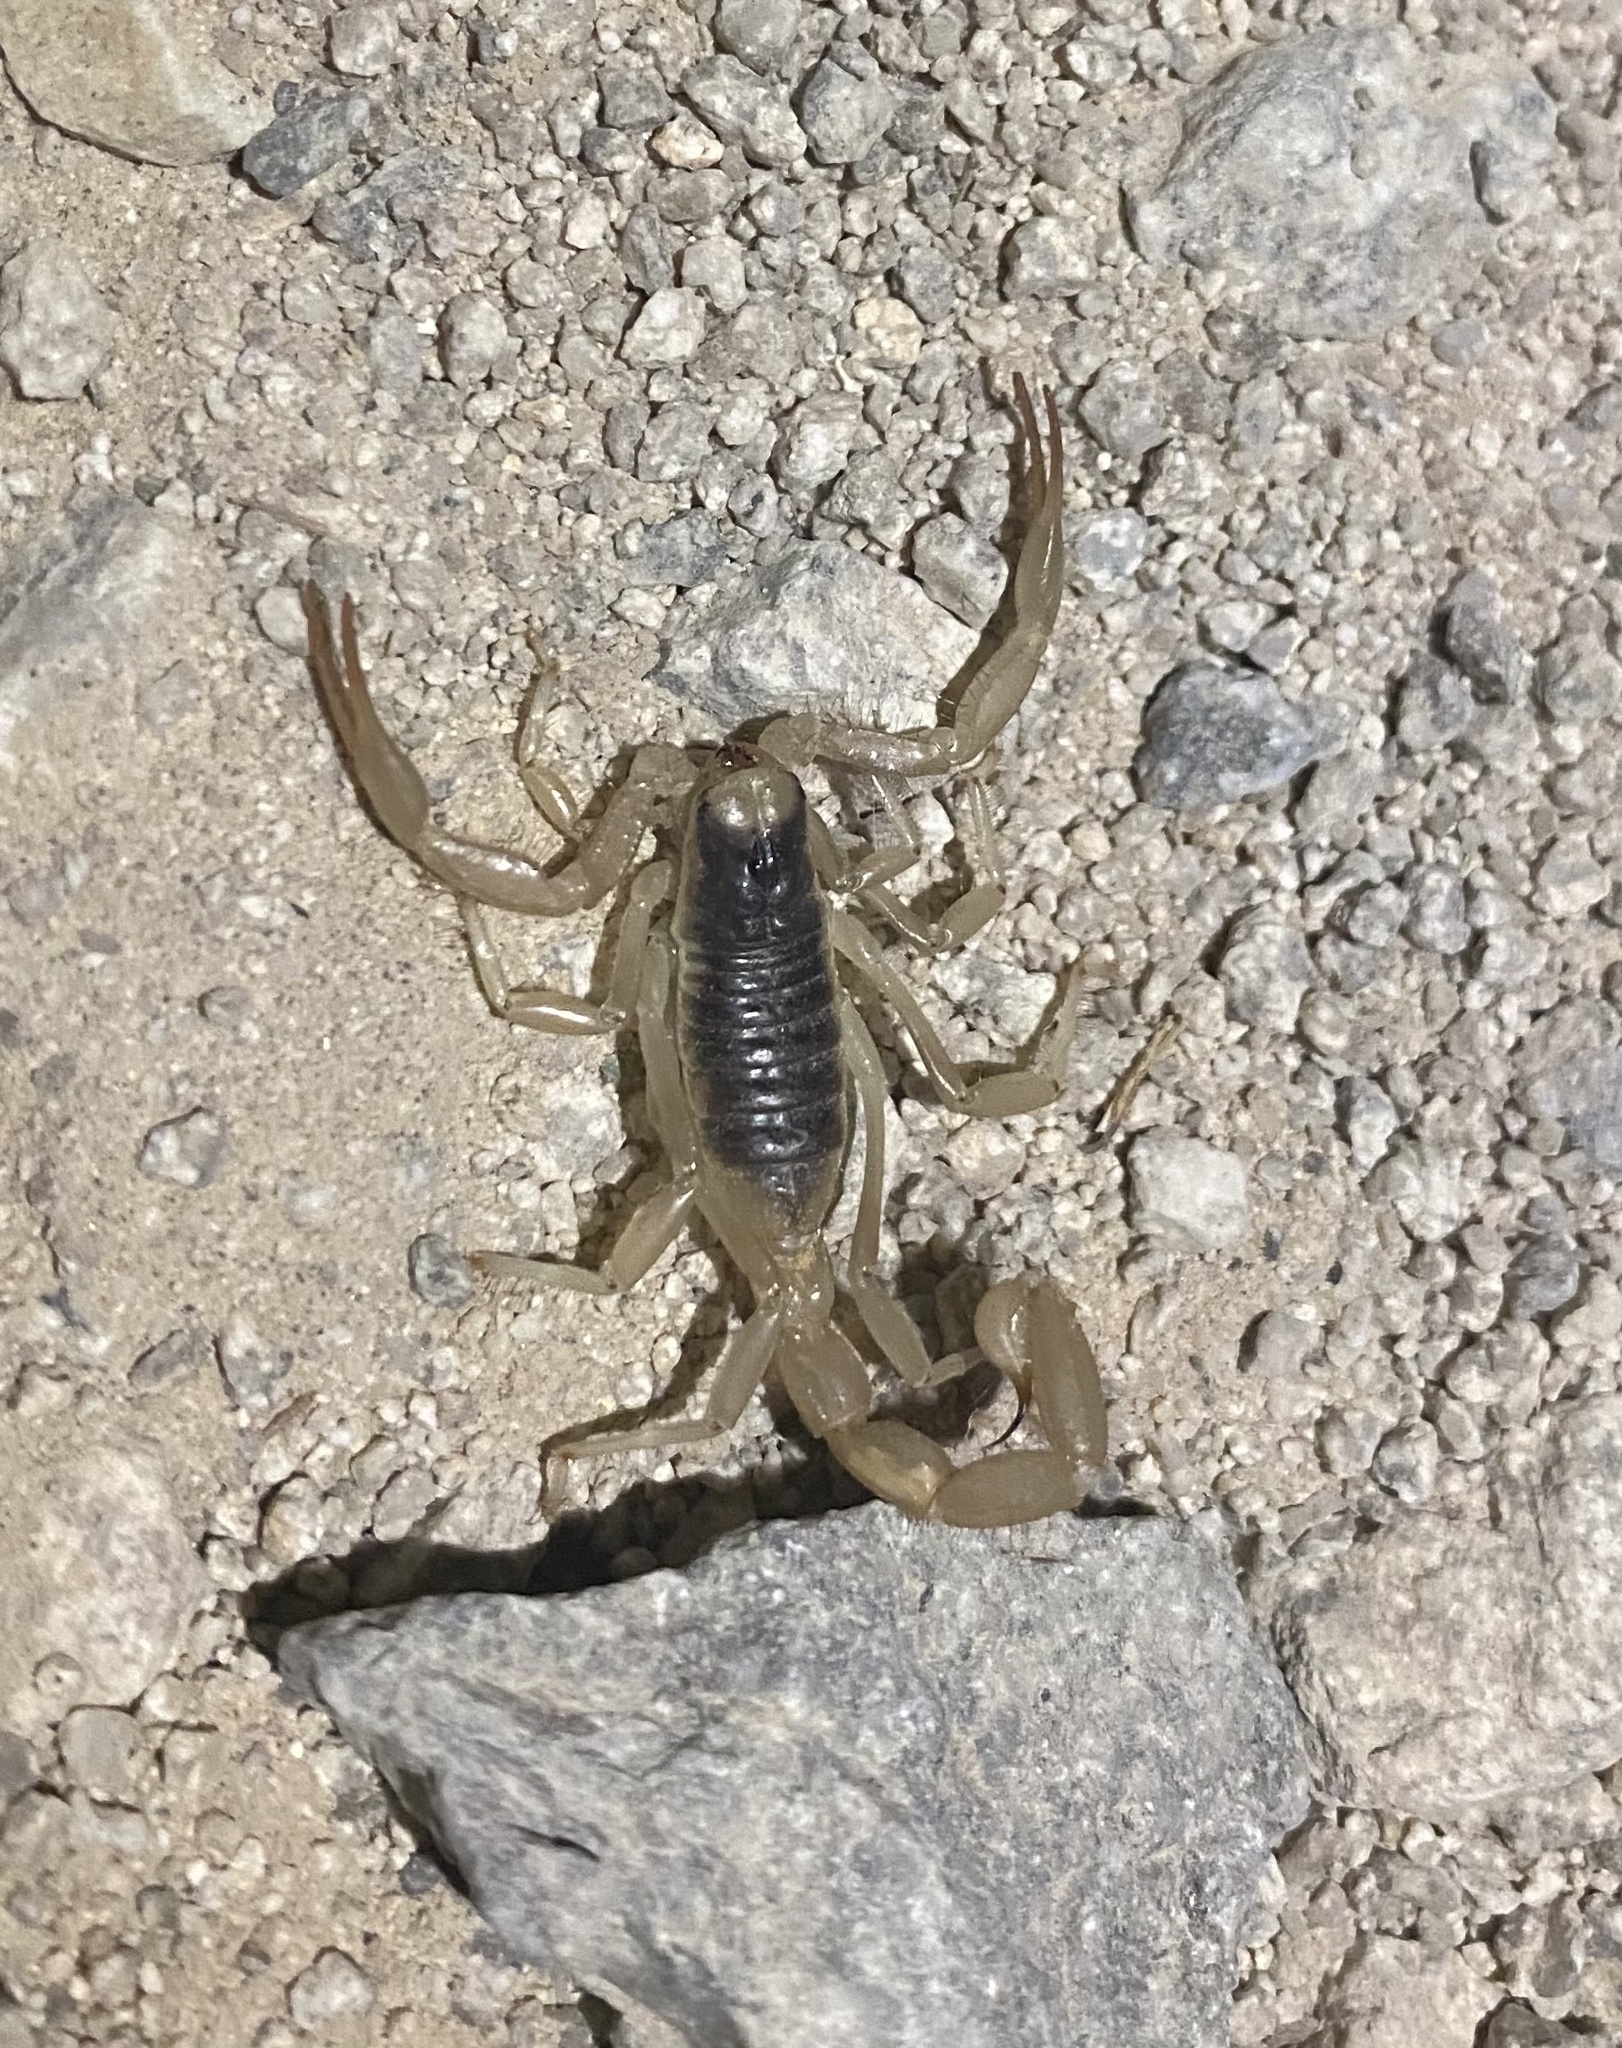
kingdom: Animalia
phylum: Arthropoda
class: Arachnida
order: Scorpiones
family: Hadruridae
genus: Hadrurus
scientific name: Hadrurus arizonensis
